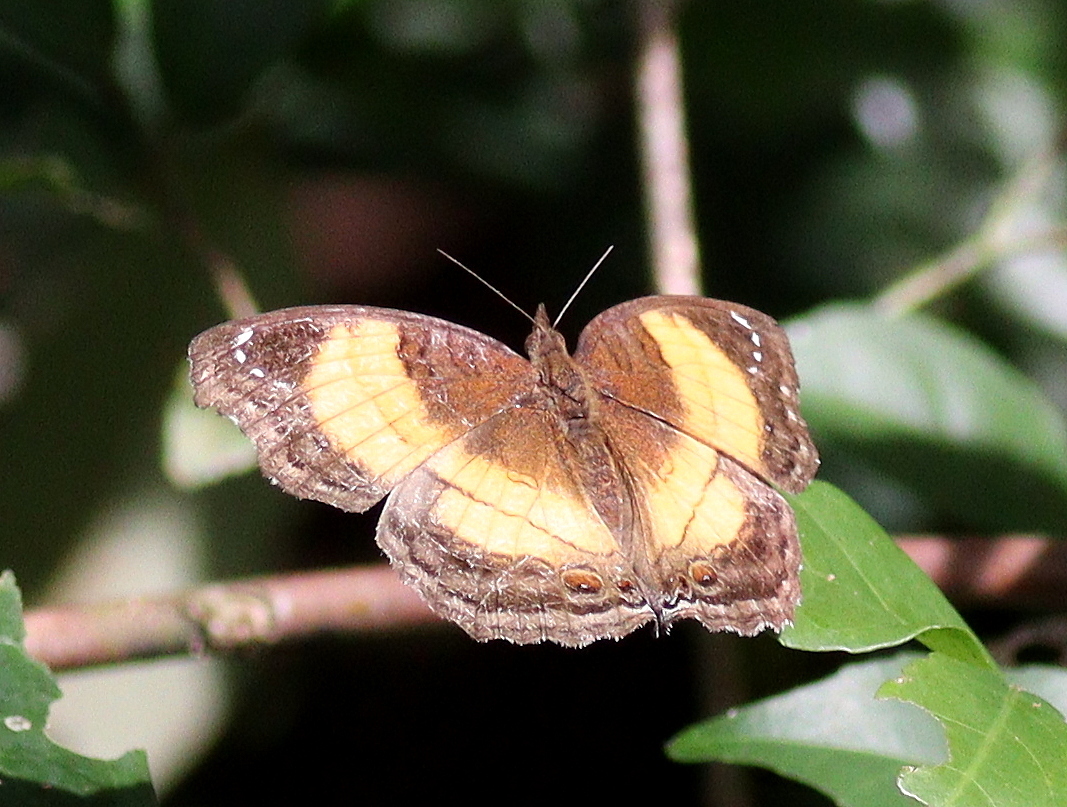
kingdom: Animalia
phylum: Arthropoda
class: Insecta
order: Lepidoptera
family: Nymphalidae
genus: Junonia
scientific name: Junonia terea
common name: Soldier pansy
